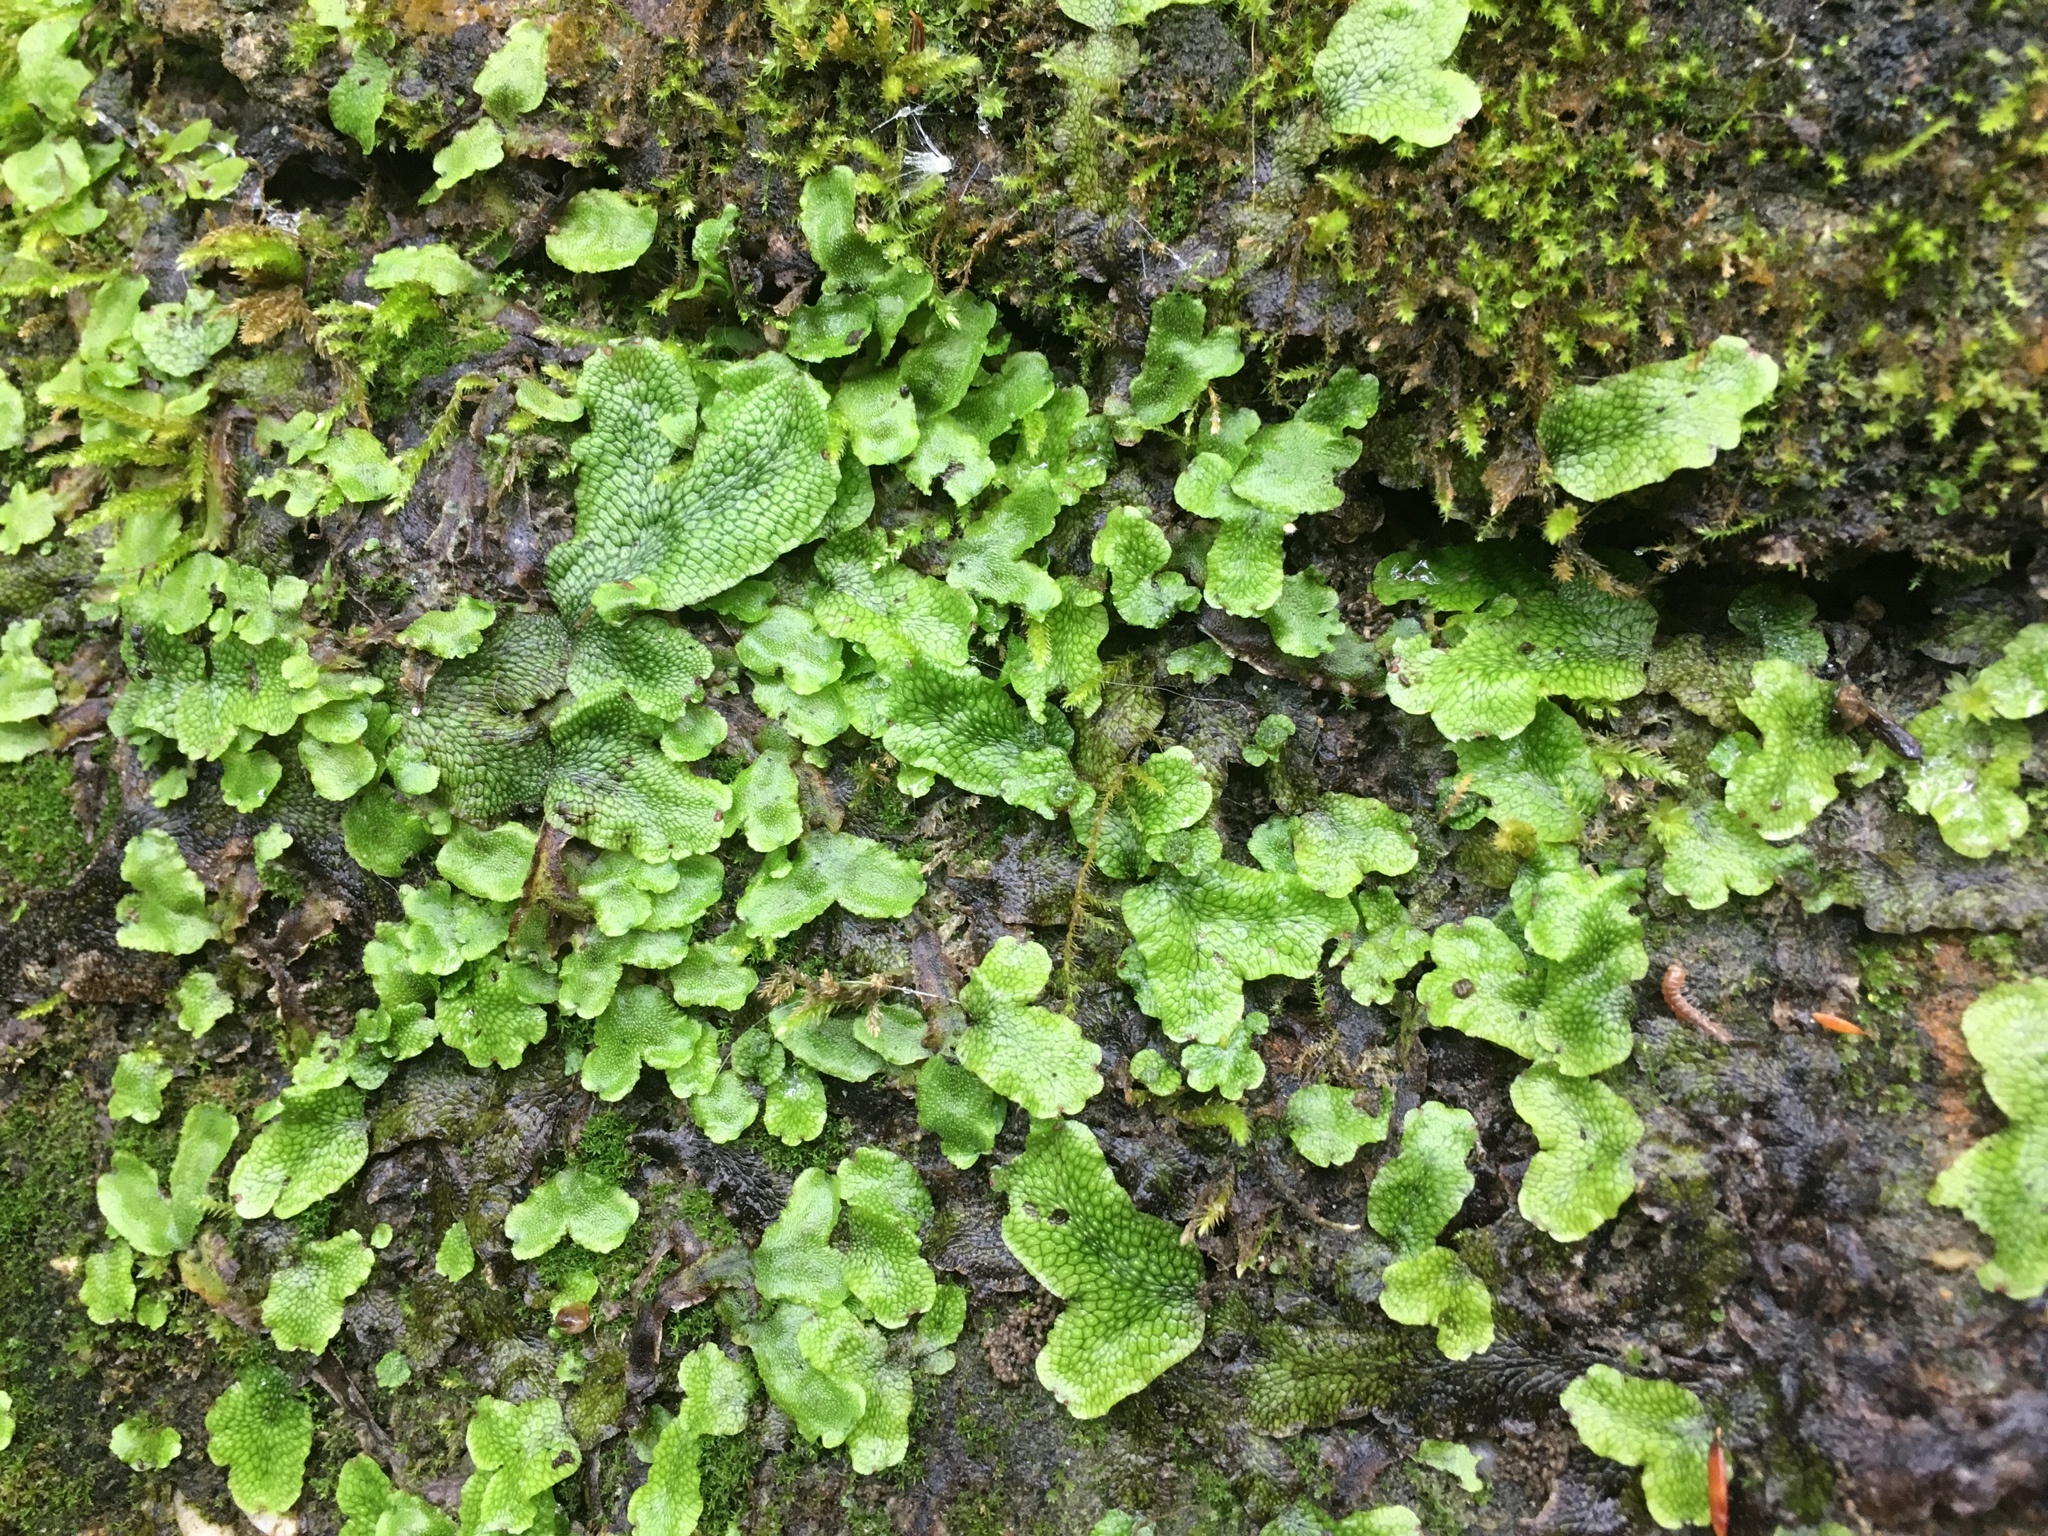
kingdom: Plantae
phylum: Marchantiophyta
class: Marchantiopsida
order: Marchantiales
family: Conocephalaceae
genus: Conocephalum
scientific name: Conocephalum salebrosum
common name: Cat-tongue liverwort
